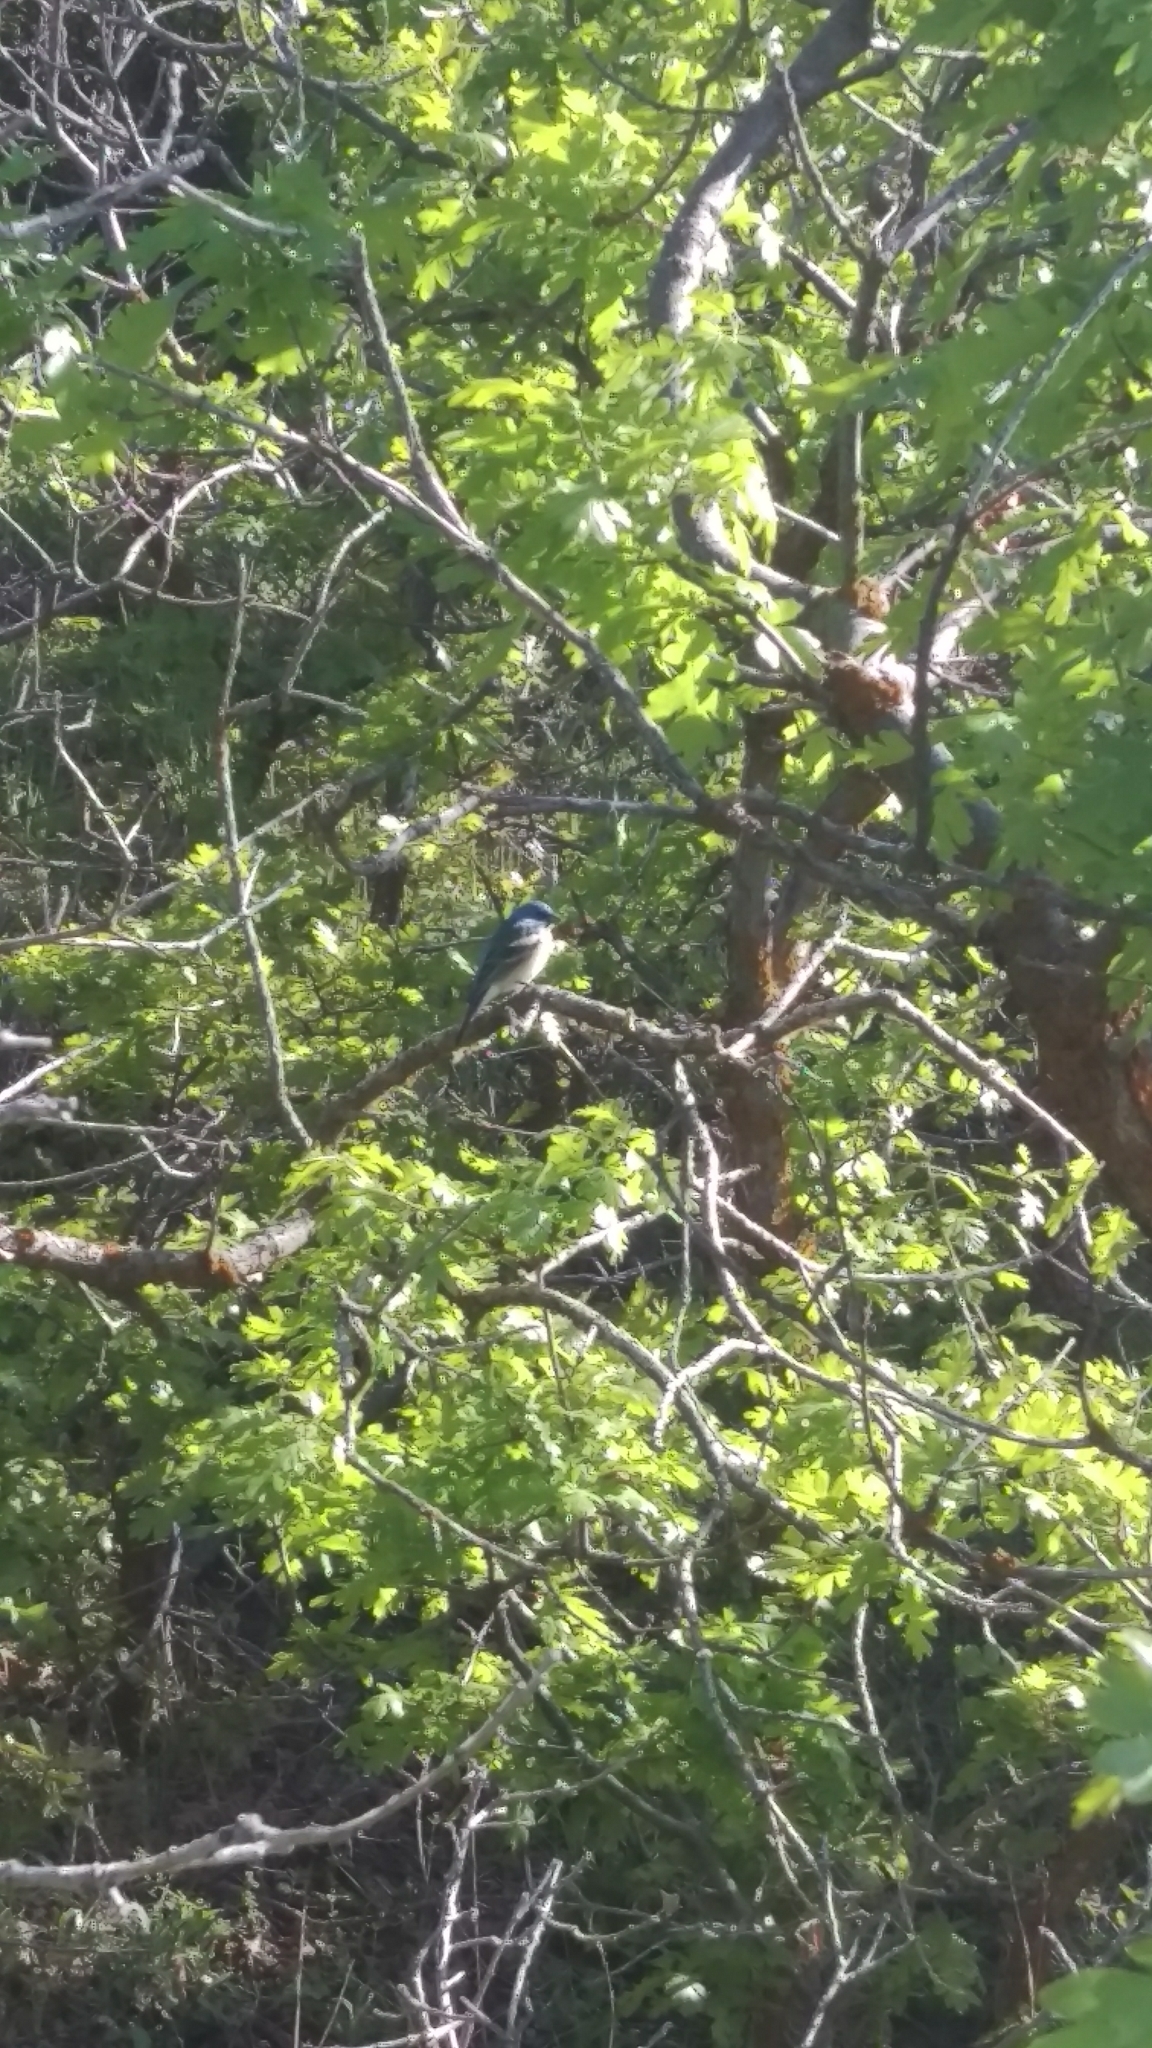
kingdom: Animalia
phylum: Chordata
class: Aves
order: Passeriformes
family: Cardinalidae
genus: Passerina
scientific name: Passerina amoena
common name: Lazuli bunting
